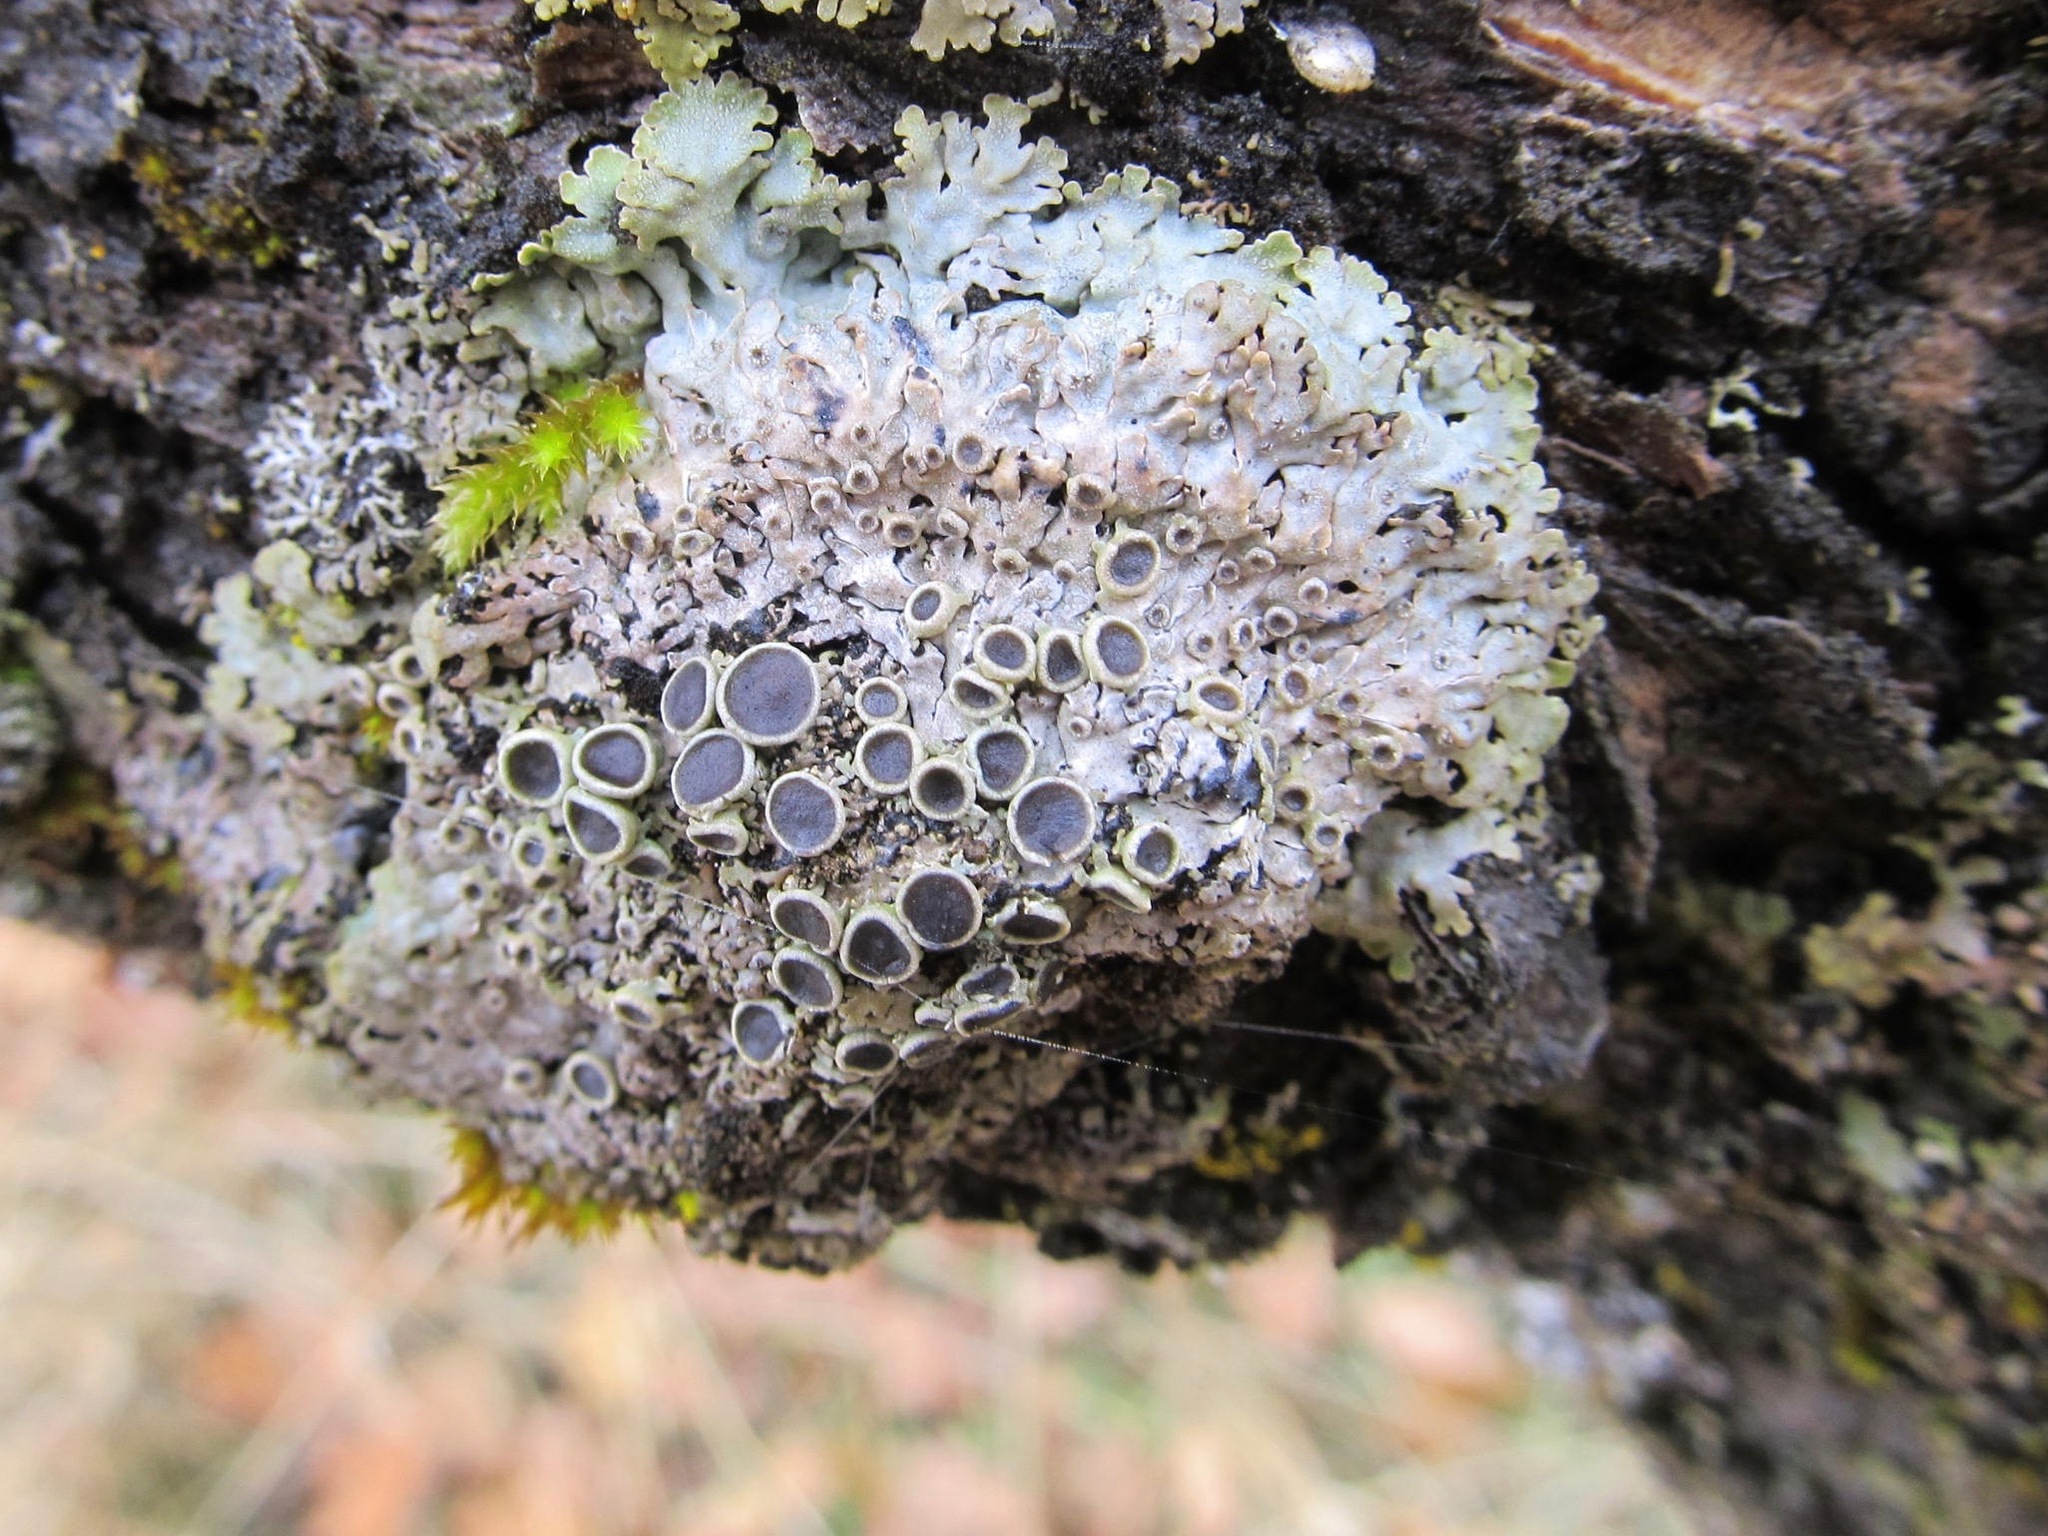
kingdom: Fungi
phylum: Ascomycota
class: Lecanoromycetes
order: Caliciales
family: Physciaceae
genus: Physconia
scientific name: Physconia americana
